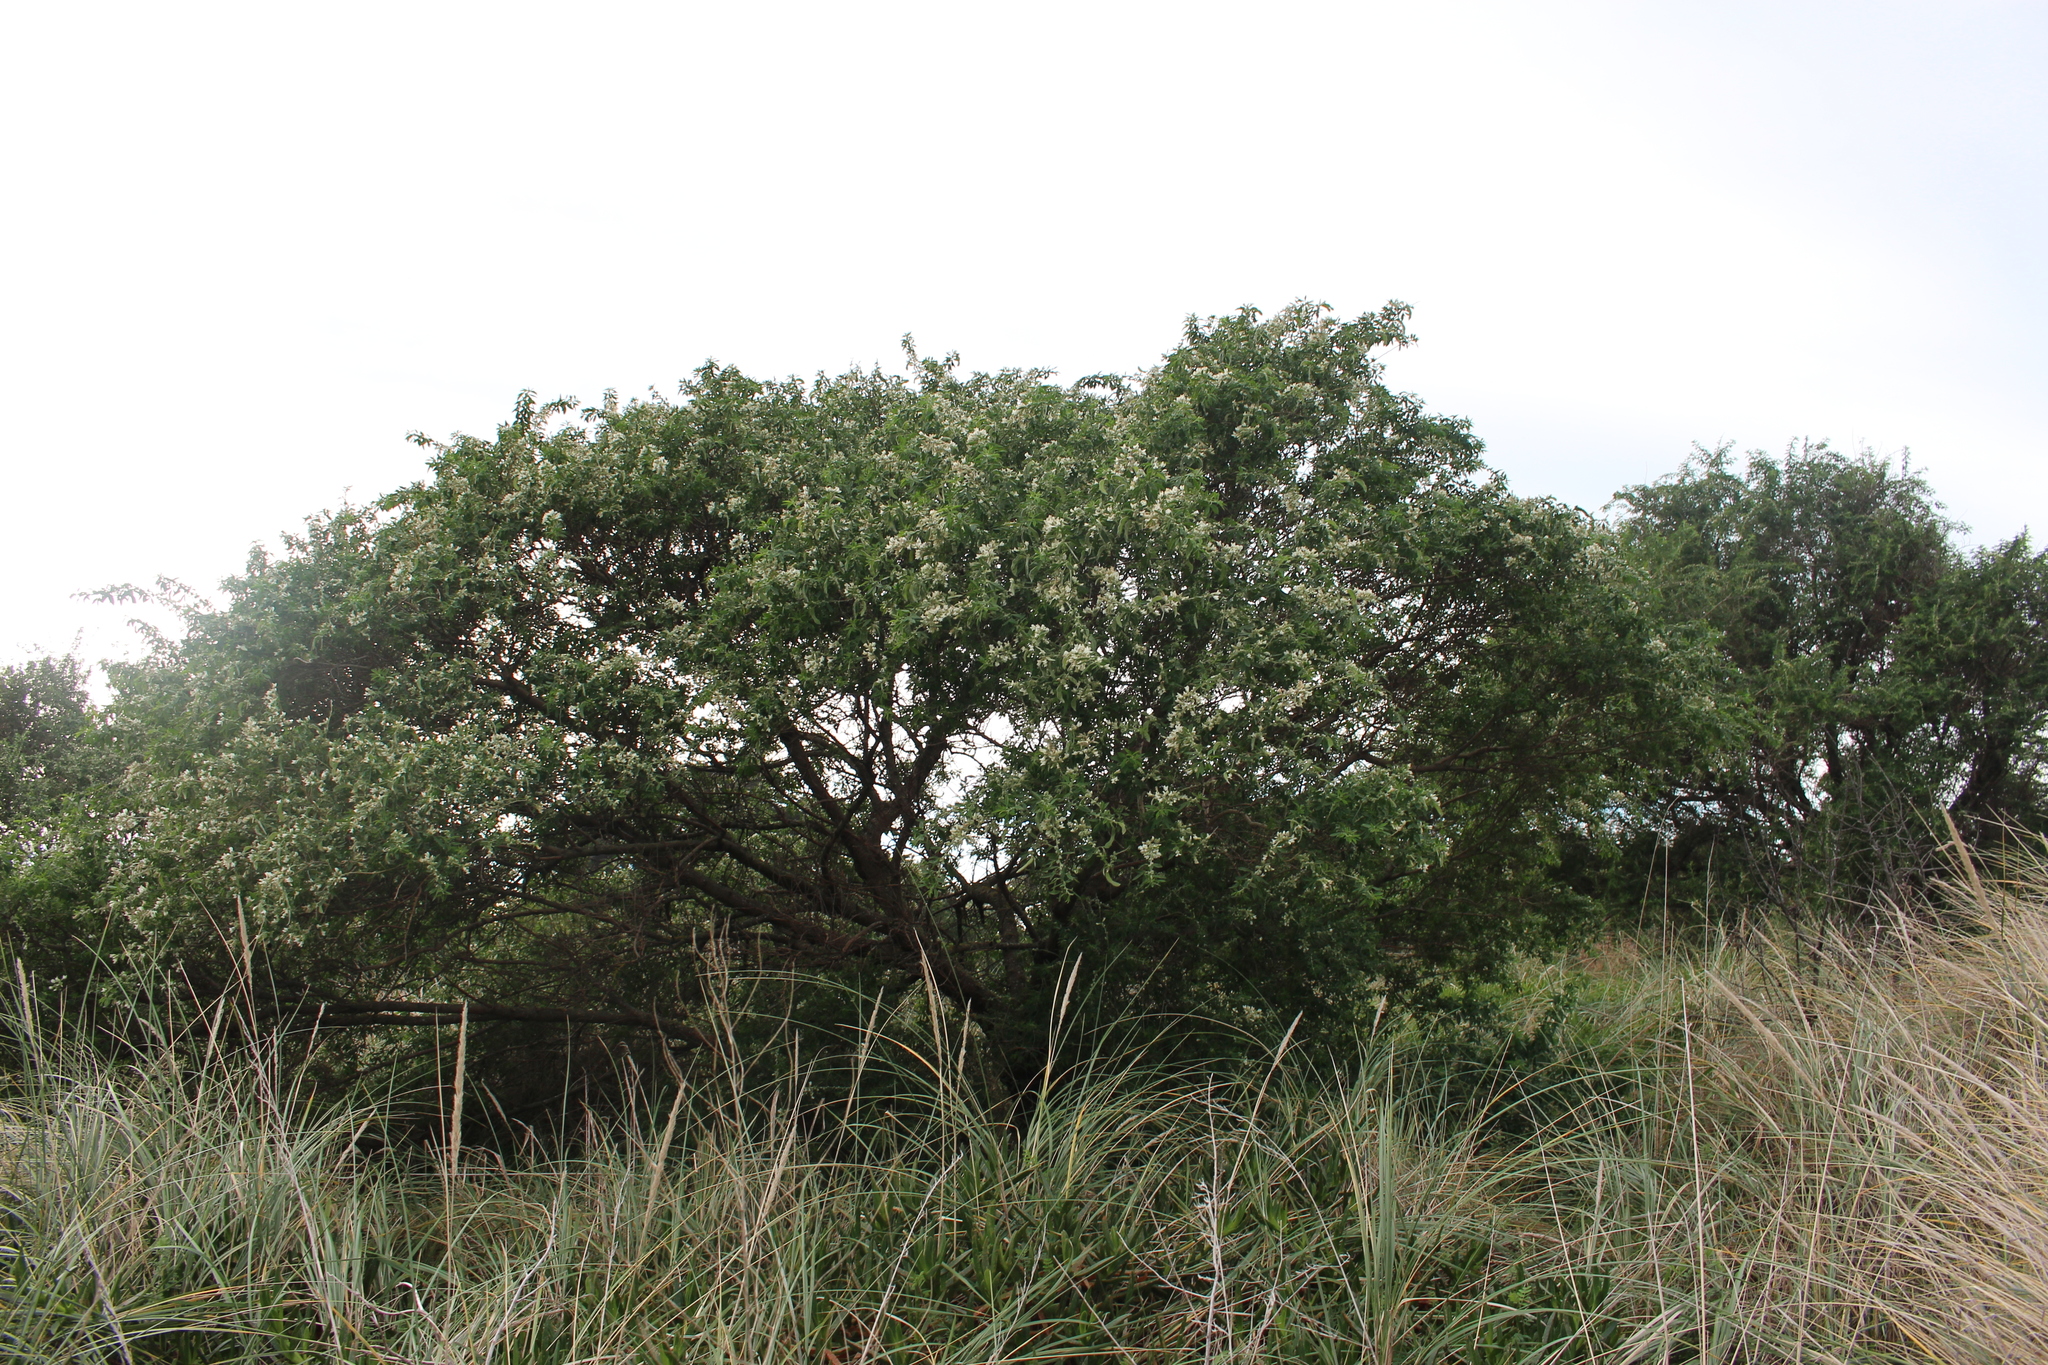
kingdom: Plantae
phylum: Tracheophyta
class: Magnoliopsida
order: Fabales
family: Fabaceae
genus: Chamaecytisus
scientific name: Chamaecytisus prolifer
